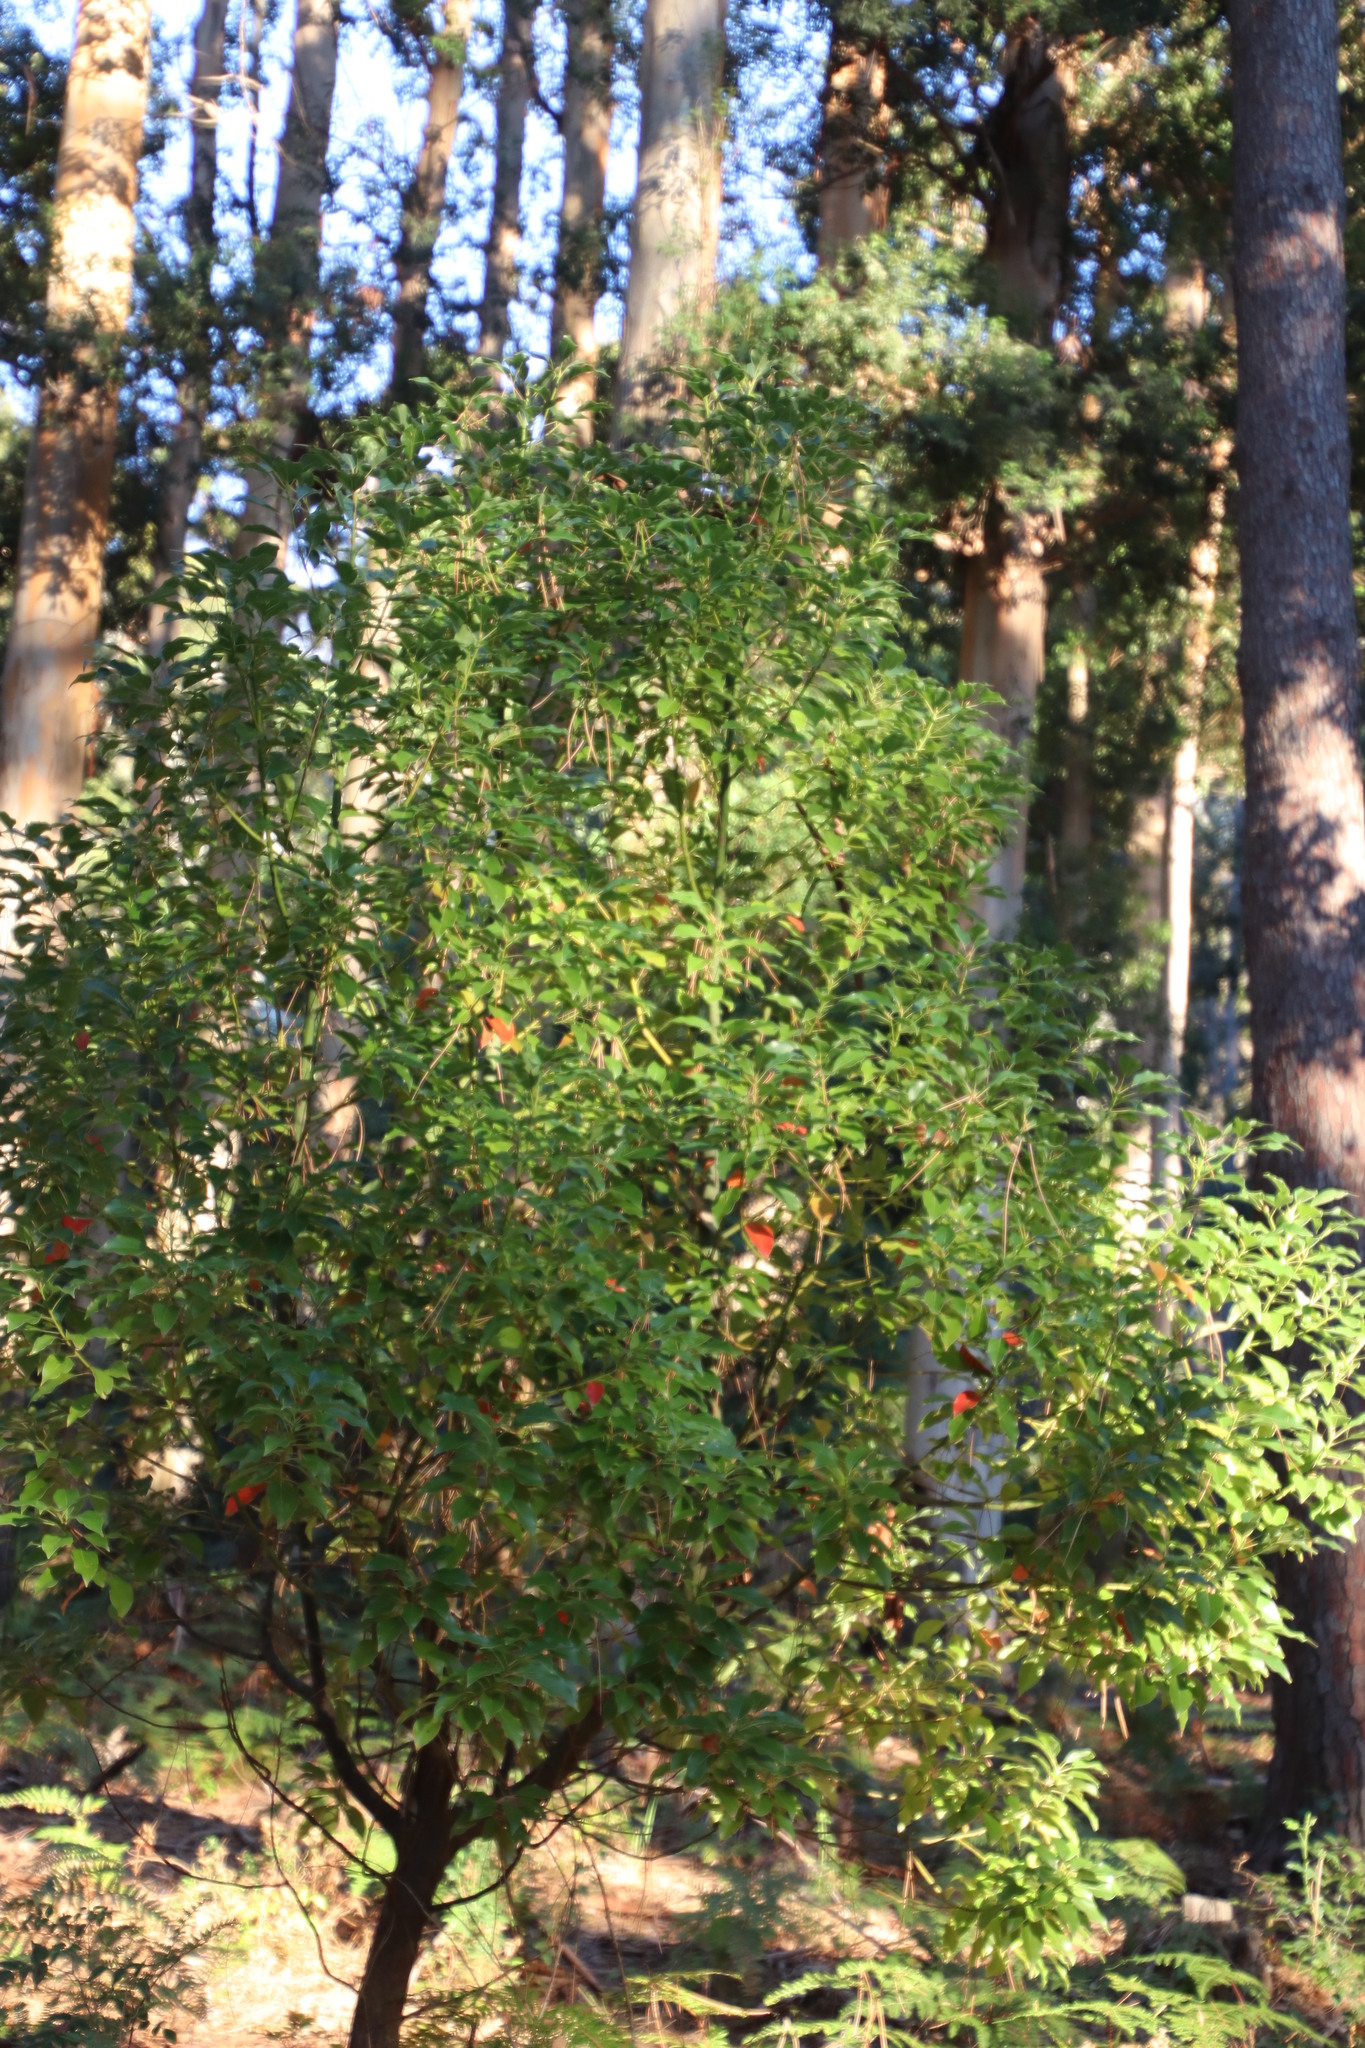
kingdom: Plantae
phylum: Tracheophyta
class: Magnoliopsida
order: Malpighiales
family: Peraceae
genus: Clutia
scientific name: Clutia pulchella
